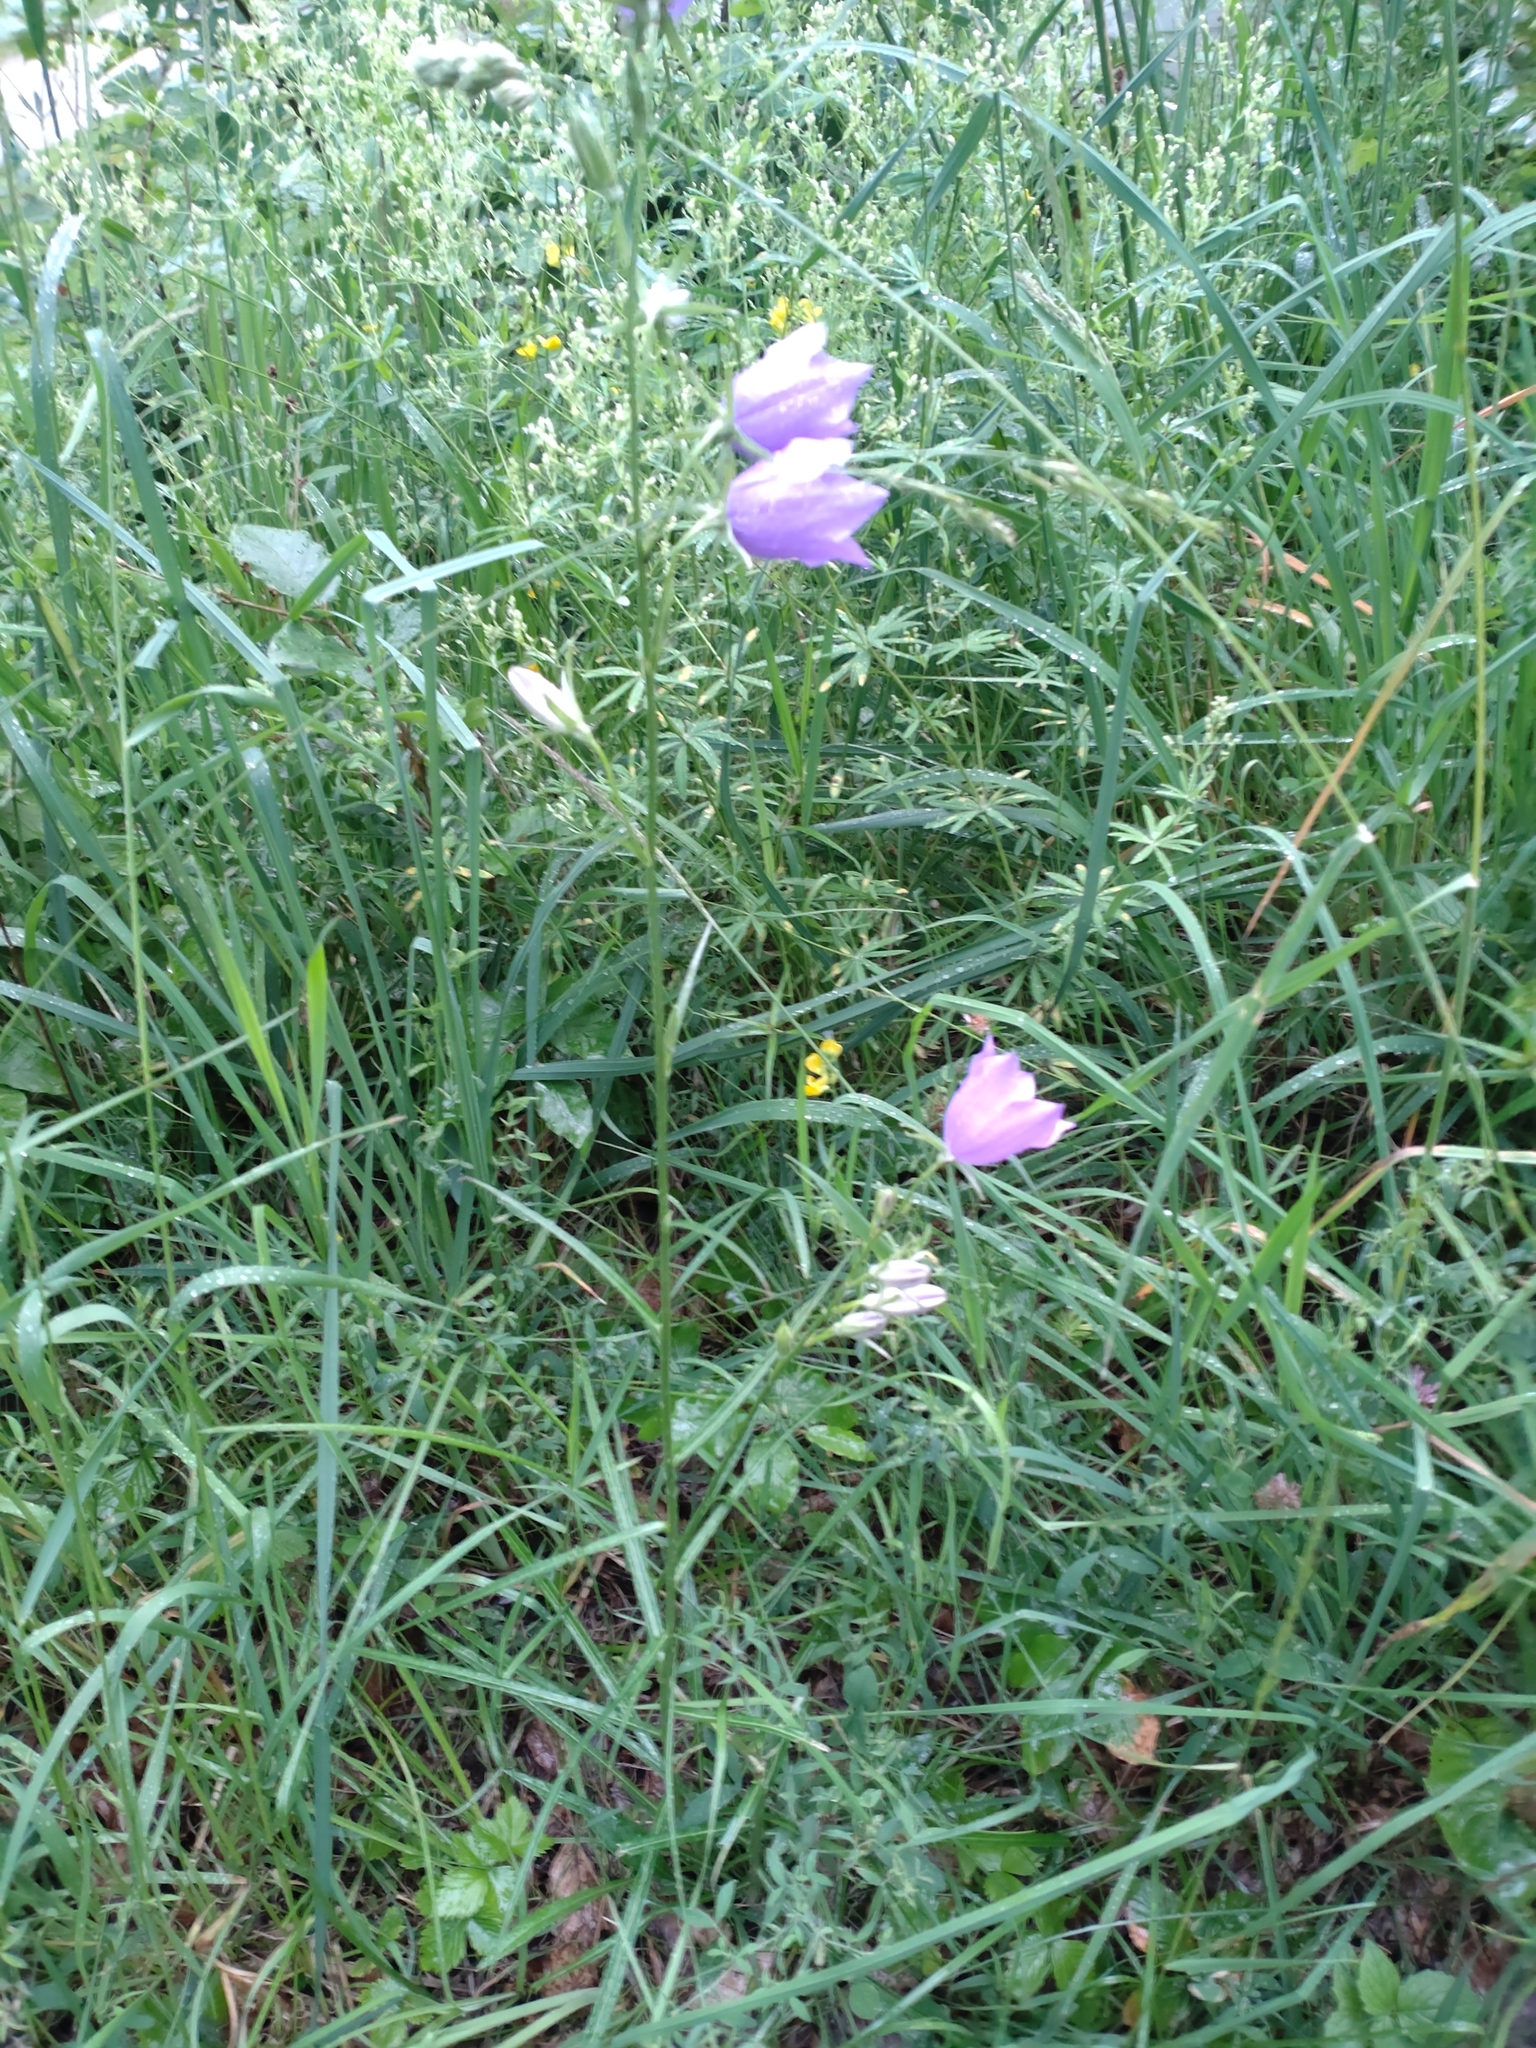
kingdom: Plantae
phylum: Tracheophyta
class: Magnoliopsida
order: Asterales
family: Campanulaceae
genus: Campanula
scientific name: Campanula persicifolia
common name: Peach-leaved bellflower
